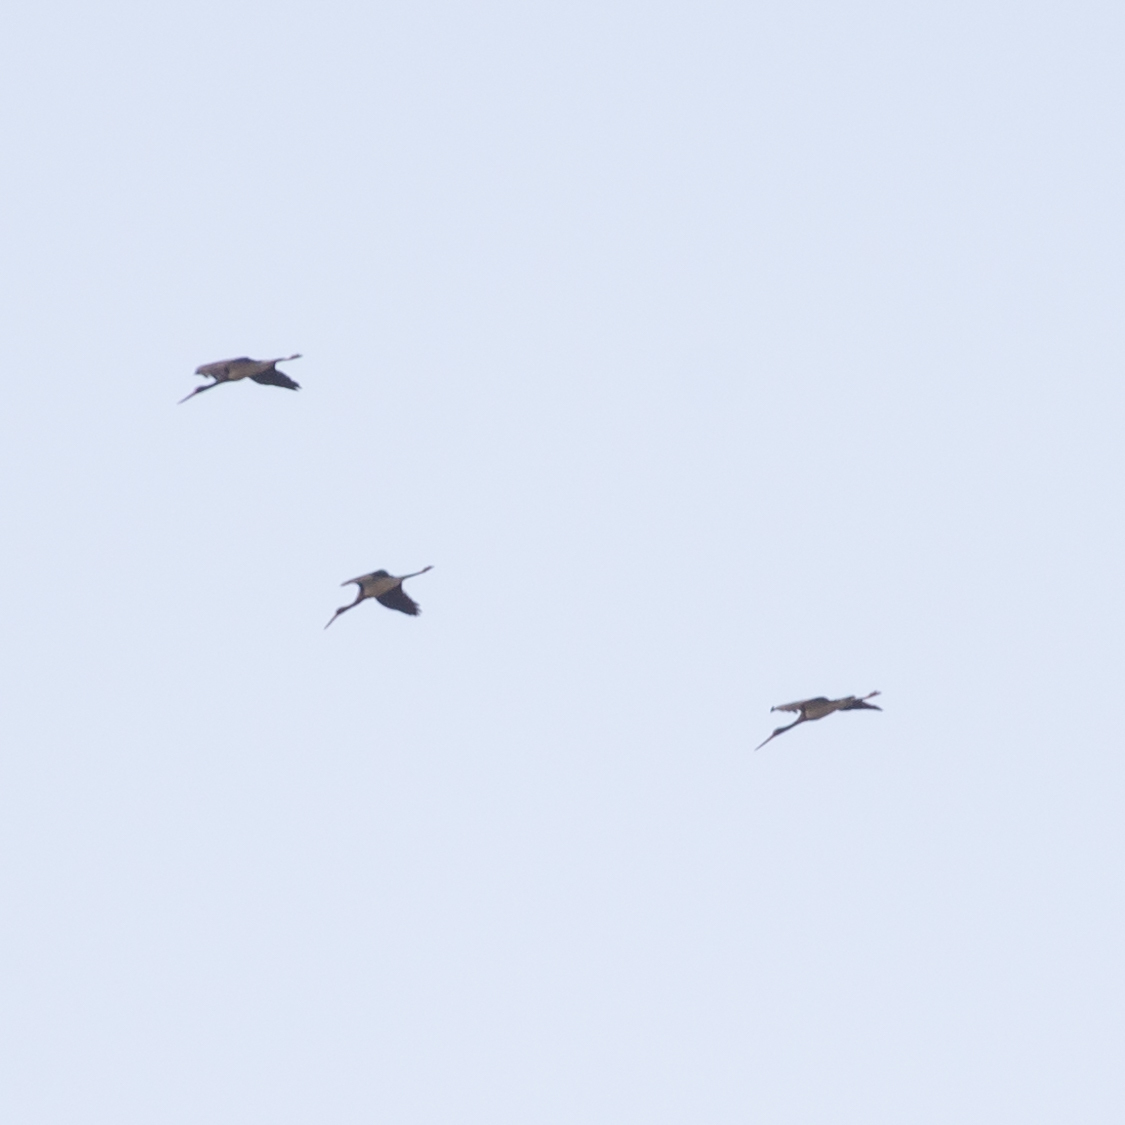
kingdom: Animalia
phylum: Chordata
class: Aves
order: Ciconiiformes
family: Ciconiidae
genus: Ciconia
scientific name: Ciconia nigra
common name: Black stork
